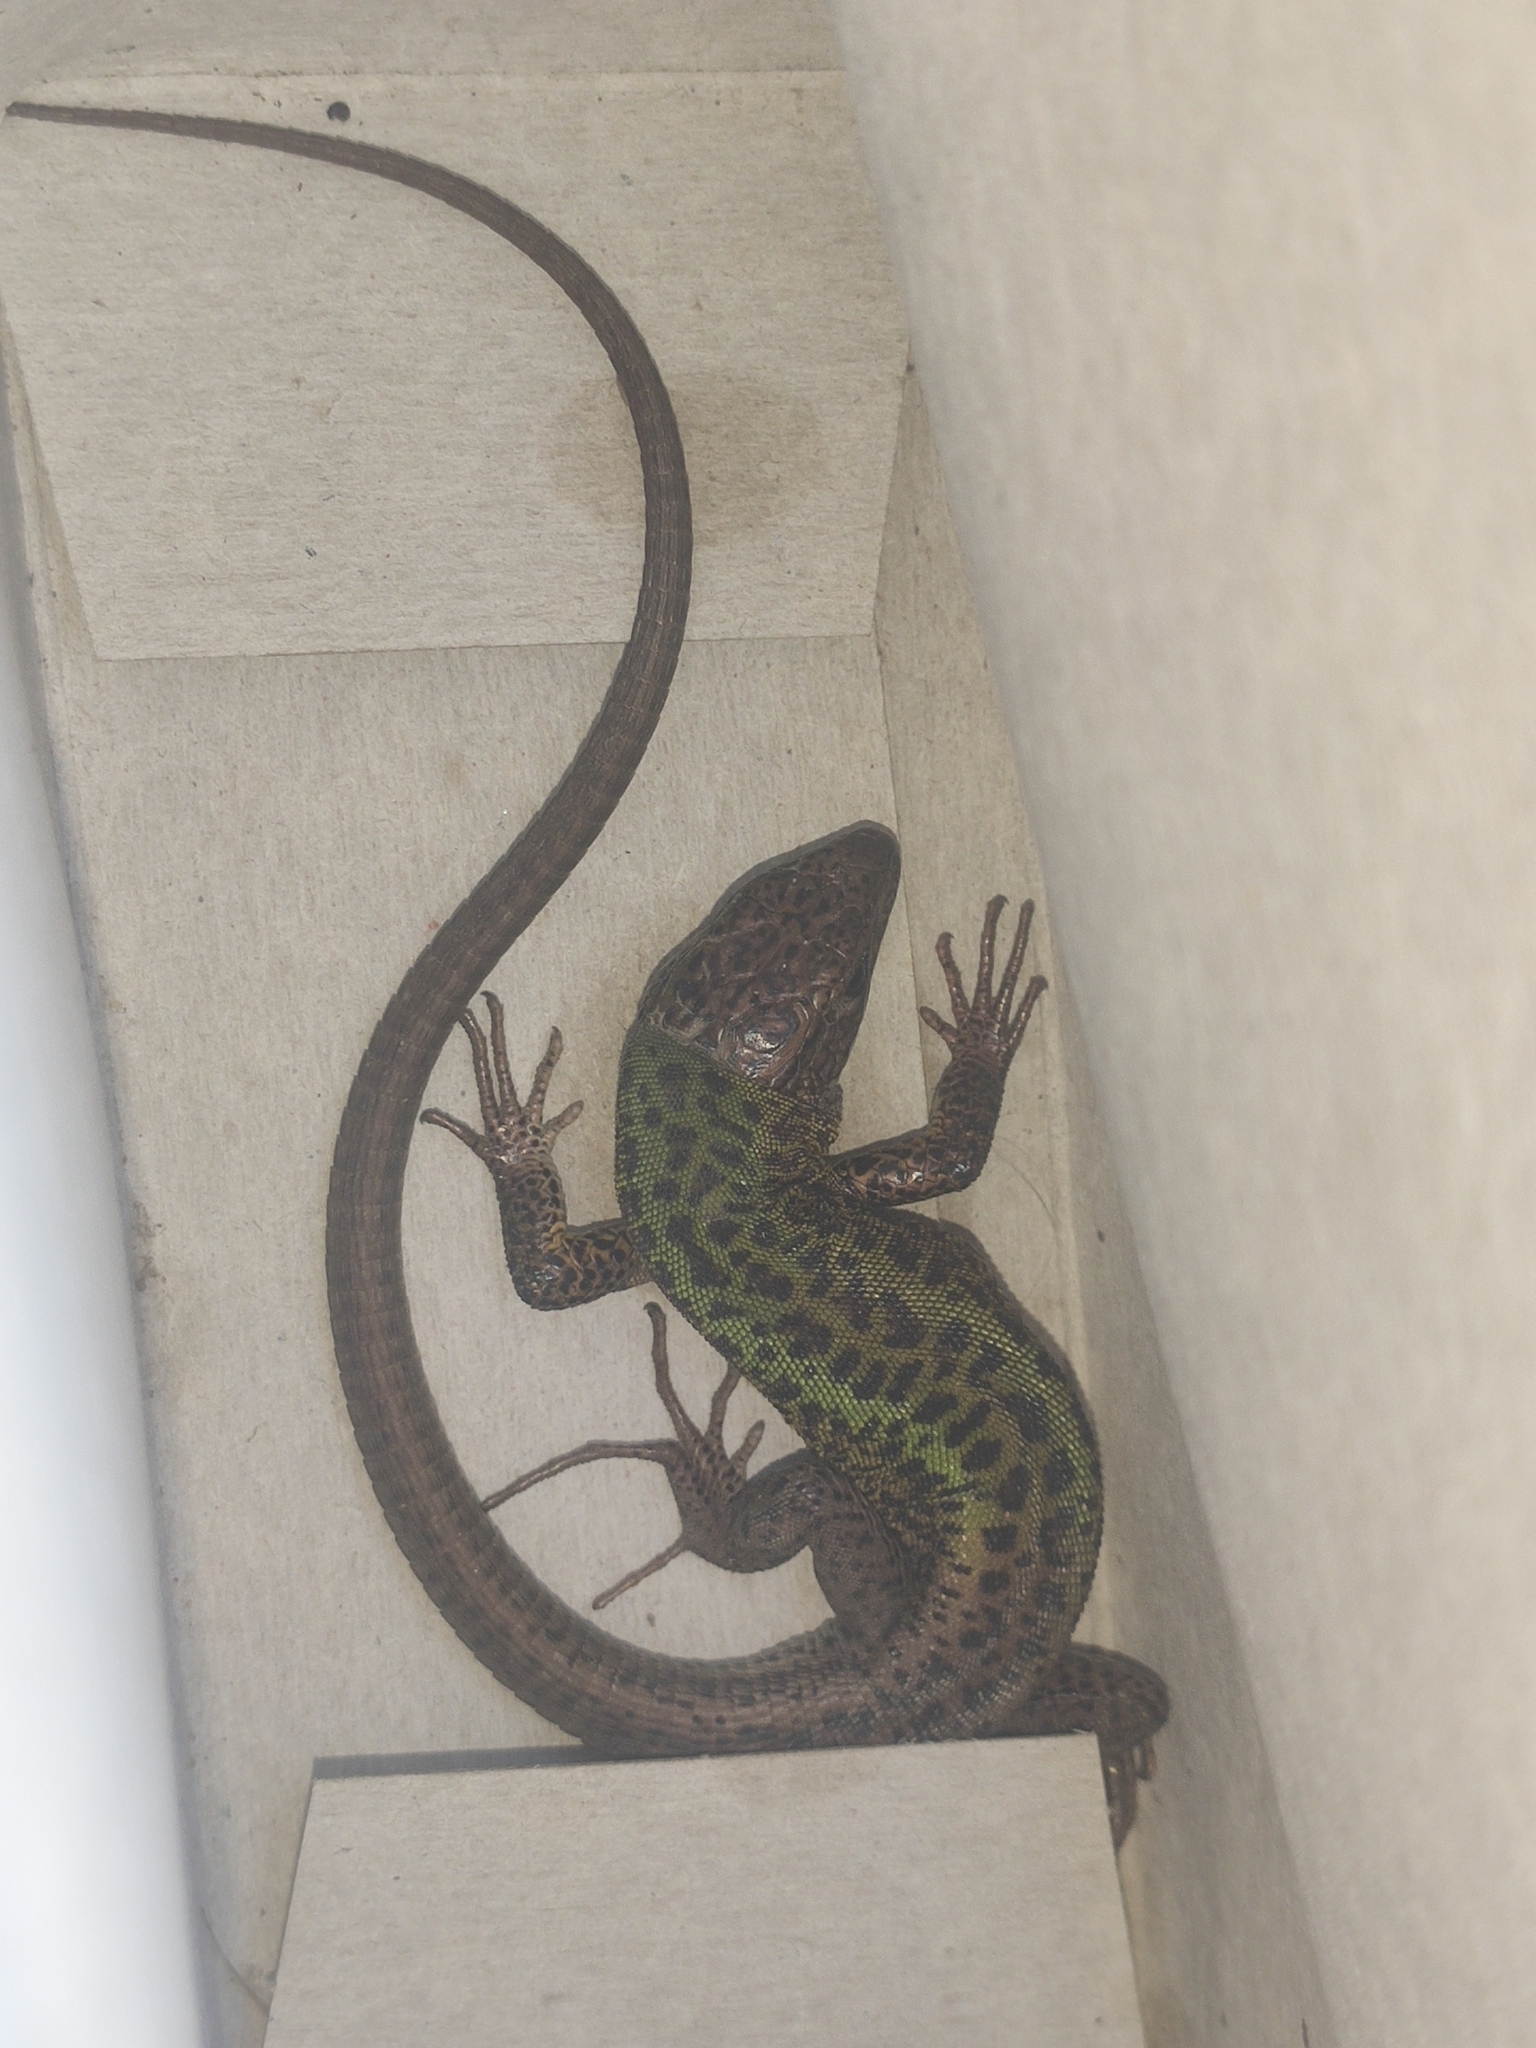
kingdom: Animalia
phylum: Chordata
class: Squamata
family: Lacertidae
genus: Lacerta
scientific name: Lacerta schreiberi
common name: Iberian emerald lizard
